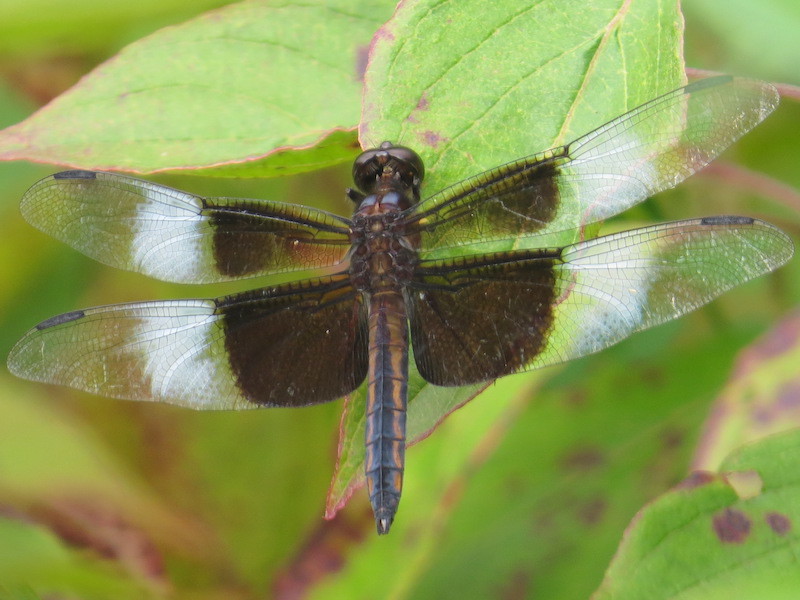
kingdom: Animalia
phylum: Arthropoda
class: Insecta
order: Odonata
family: Libellulidae
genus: Libellula
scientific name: Libellula luctuosa
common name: Widow skimmer
